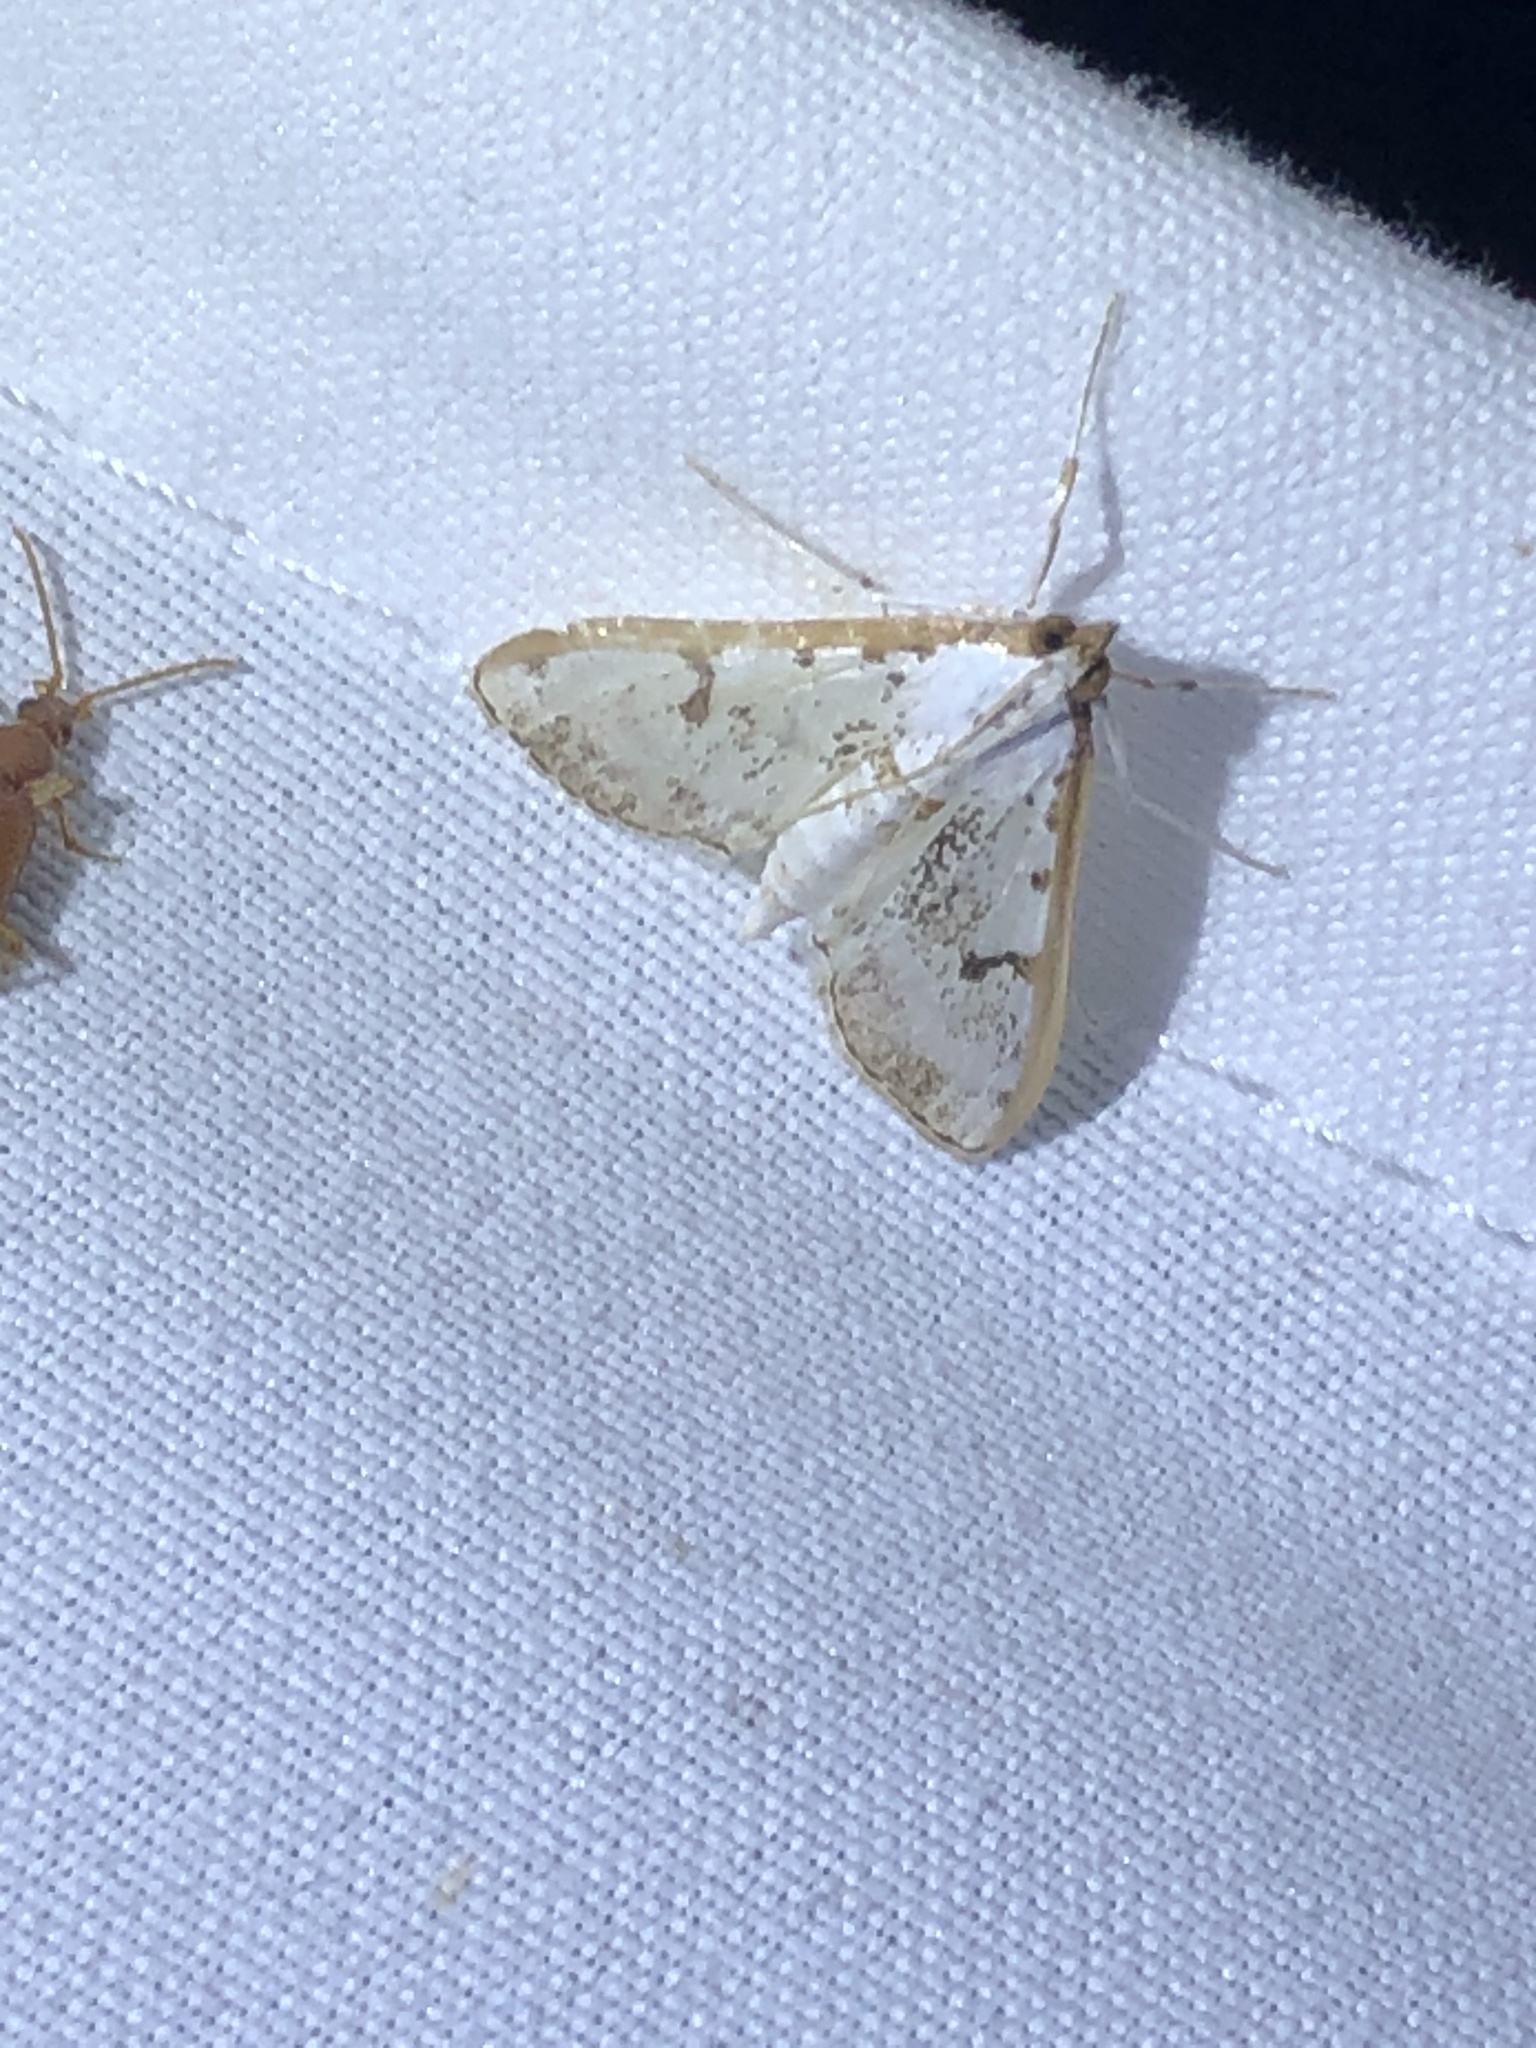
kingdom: Animalia
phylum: Arthropoda
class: Insecta
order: Lepidoptera
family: Crambidae
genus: Palpita
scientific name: Palpita gracilalis
